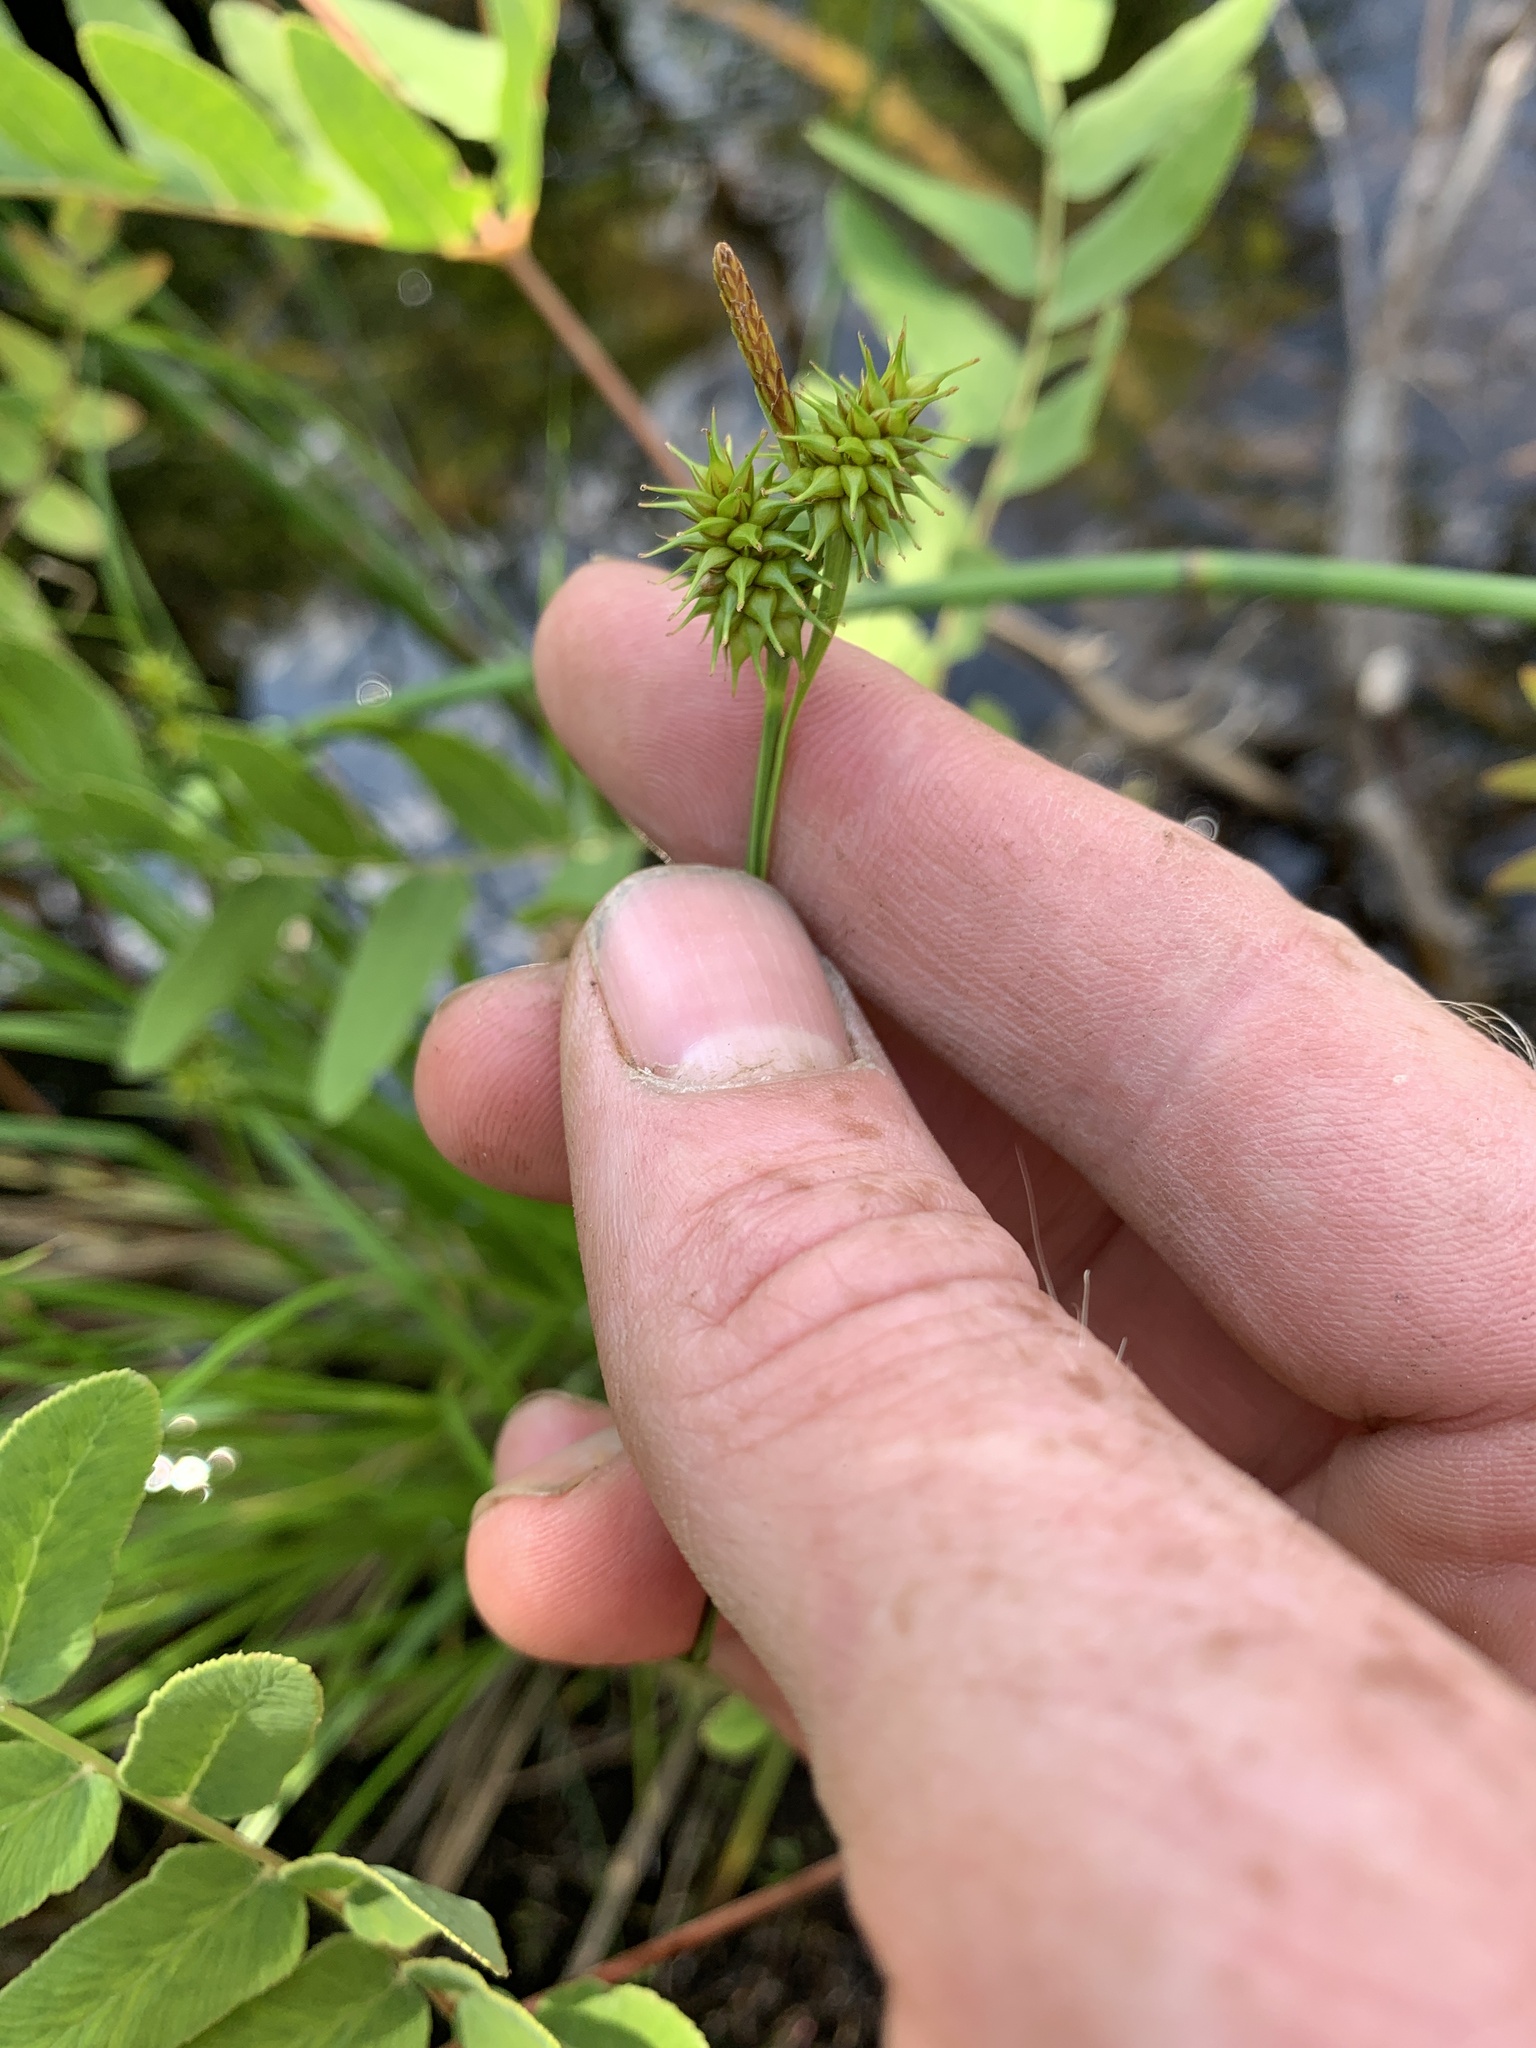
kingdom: Plantae
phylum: Tracheophyta
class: Liliopsida
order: Poales
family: Cyperaceae
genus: Carex
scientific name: Carex flava
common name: Large yellow-sedge
